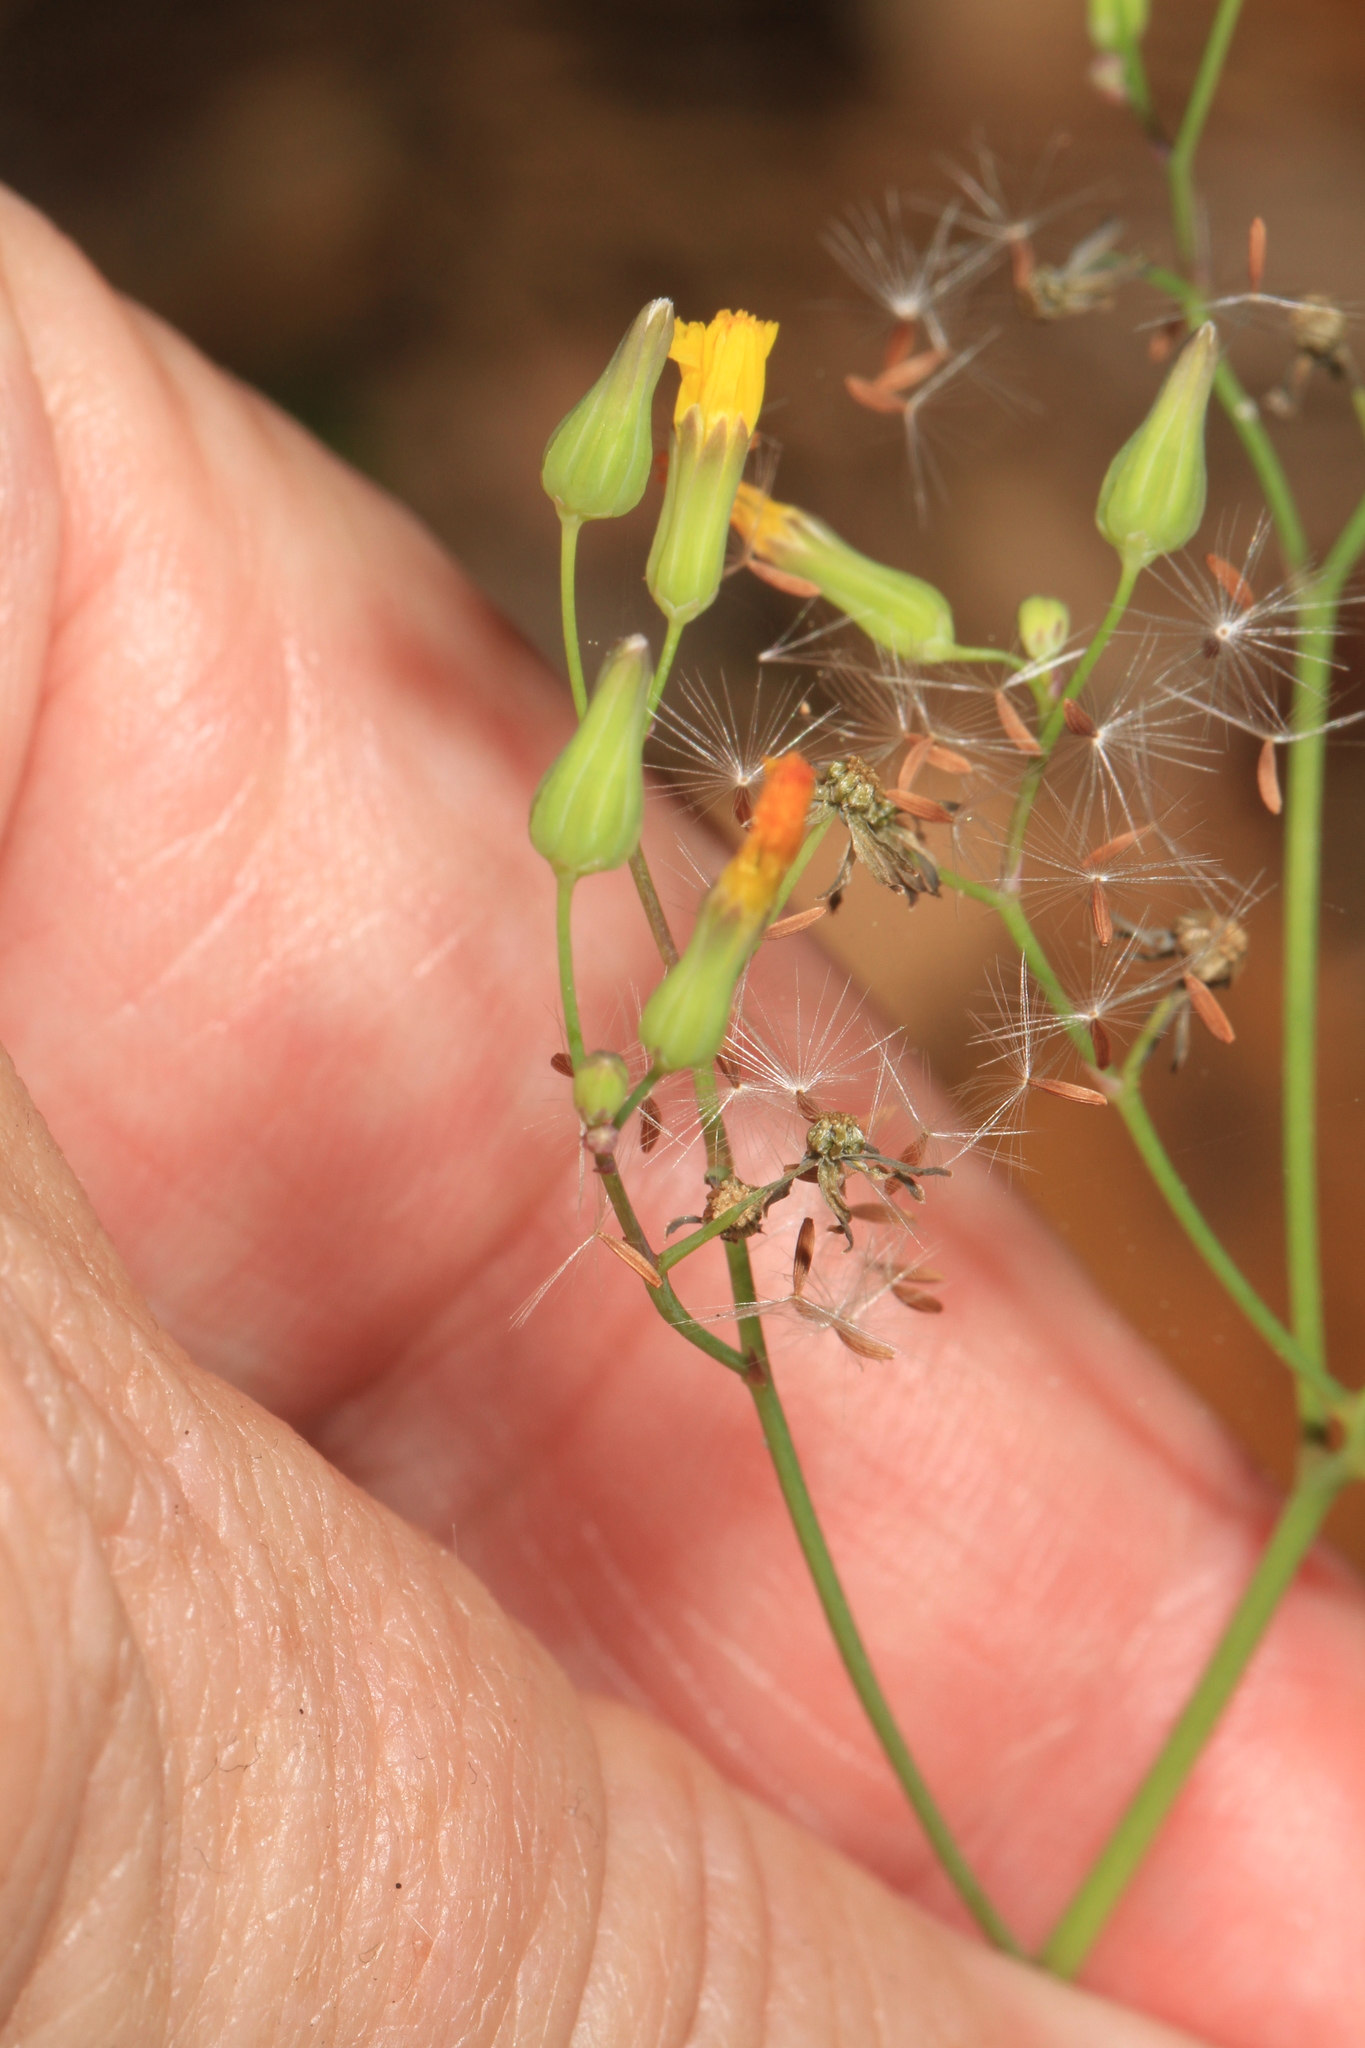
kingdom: Plantae
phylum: Tracheophyta
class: Magnoliopsida
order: Asterales
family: Asteraceae
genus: Youngia
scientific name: Youngia japonica
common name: Oriental false hawksbeard
